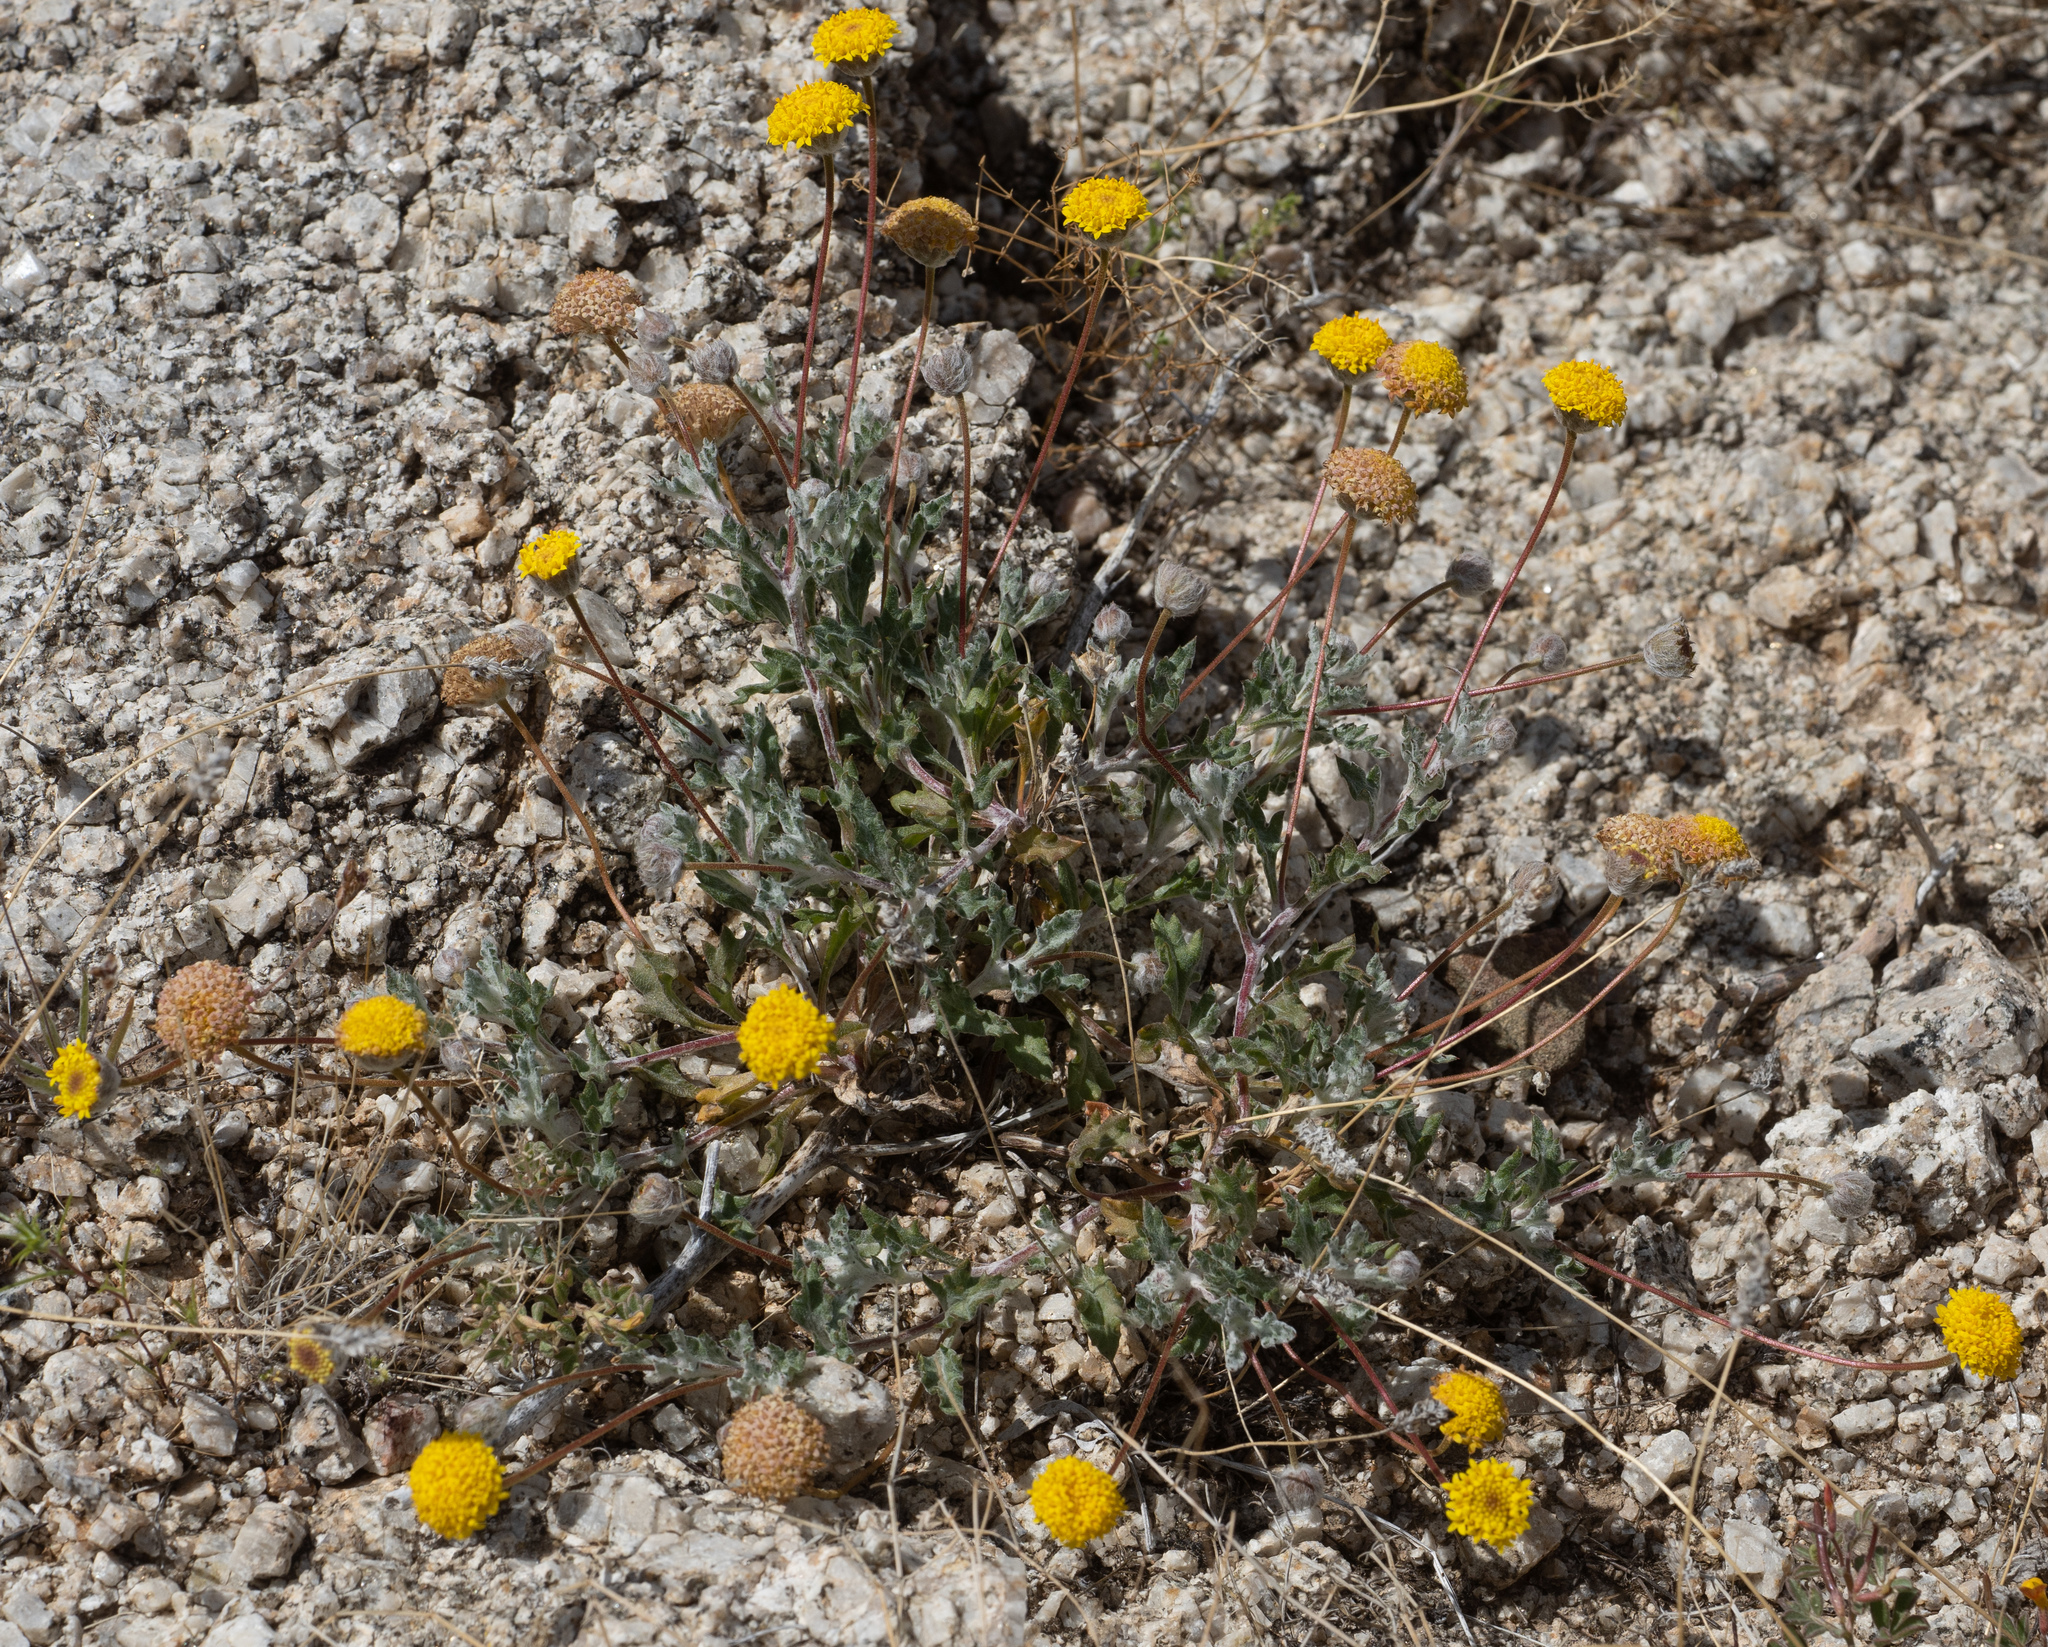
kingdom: Plantae
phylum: Tracheophyta
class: Magnoliopsida
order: Asterales
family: Asteraceae
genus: Trichoptilium
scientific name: Trichoptilium incisum
